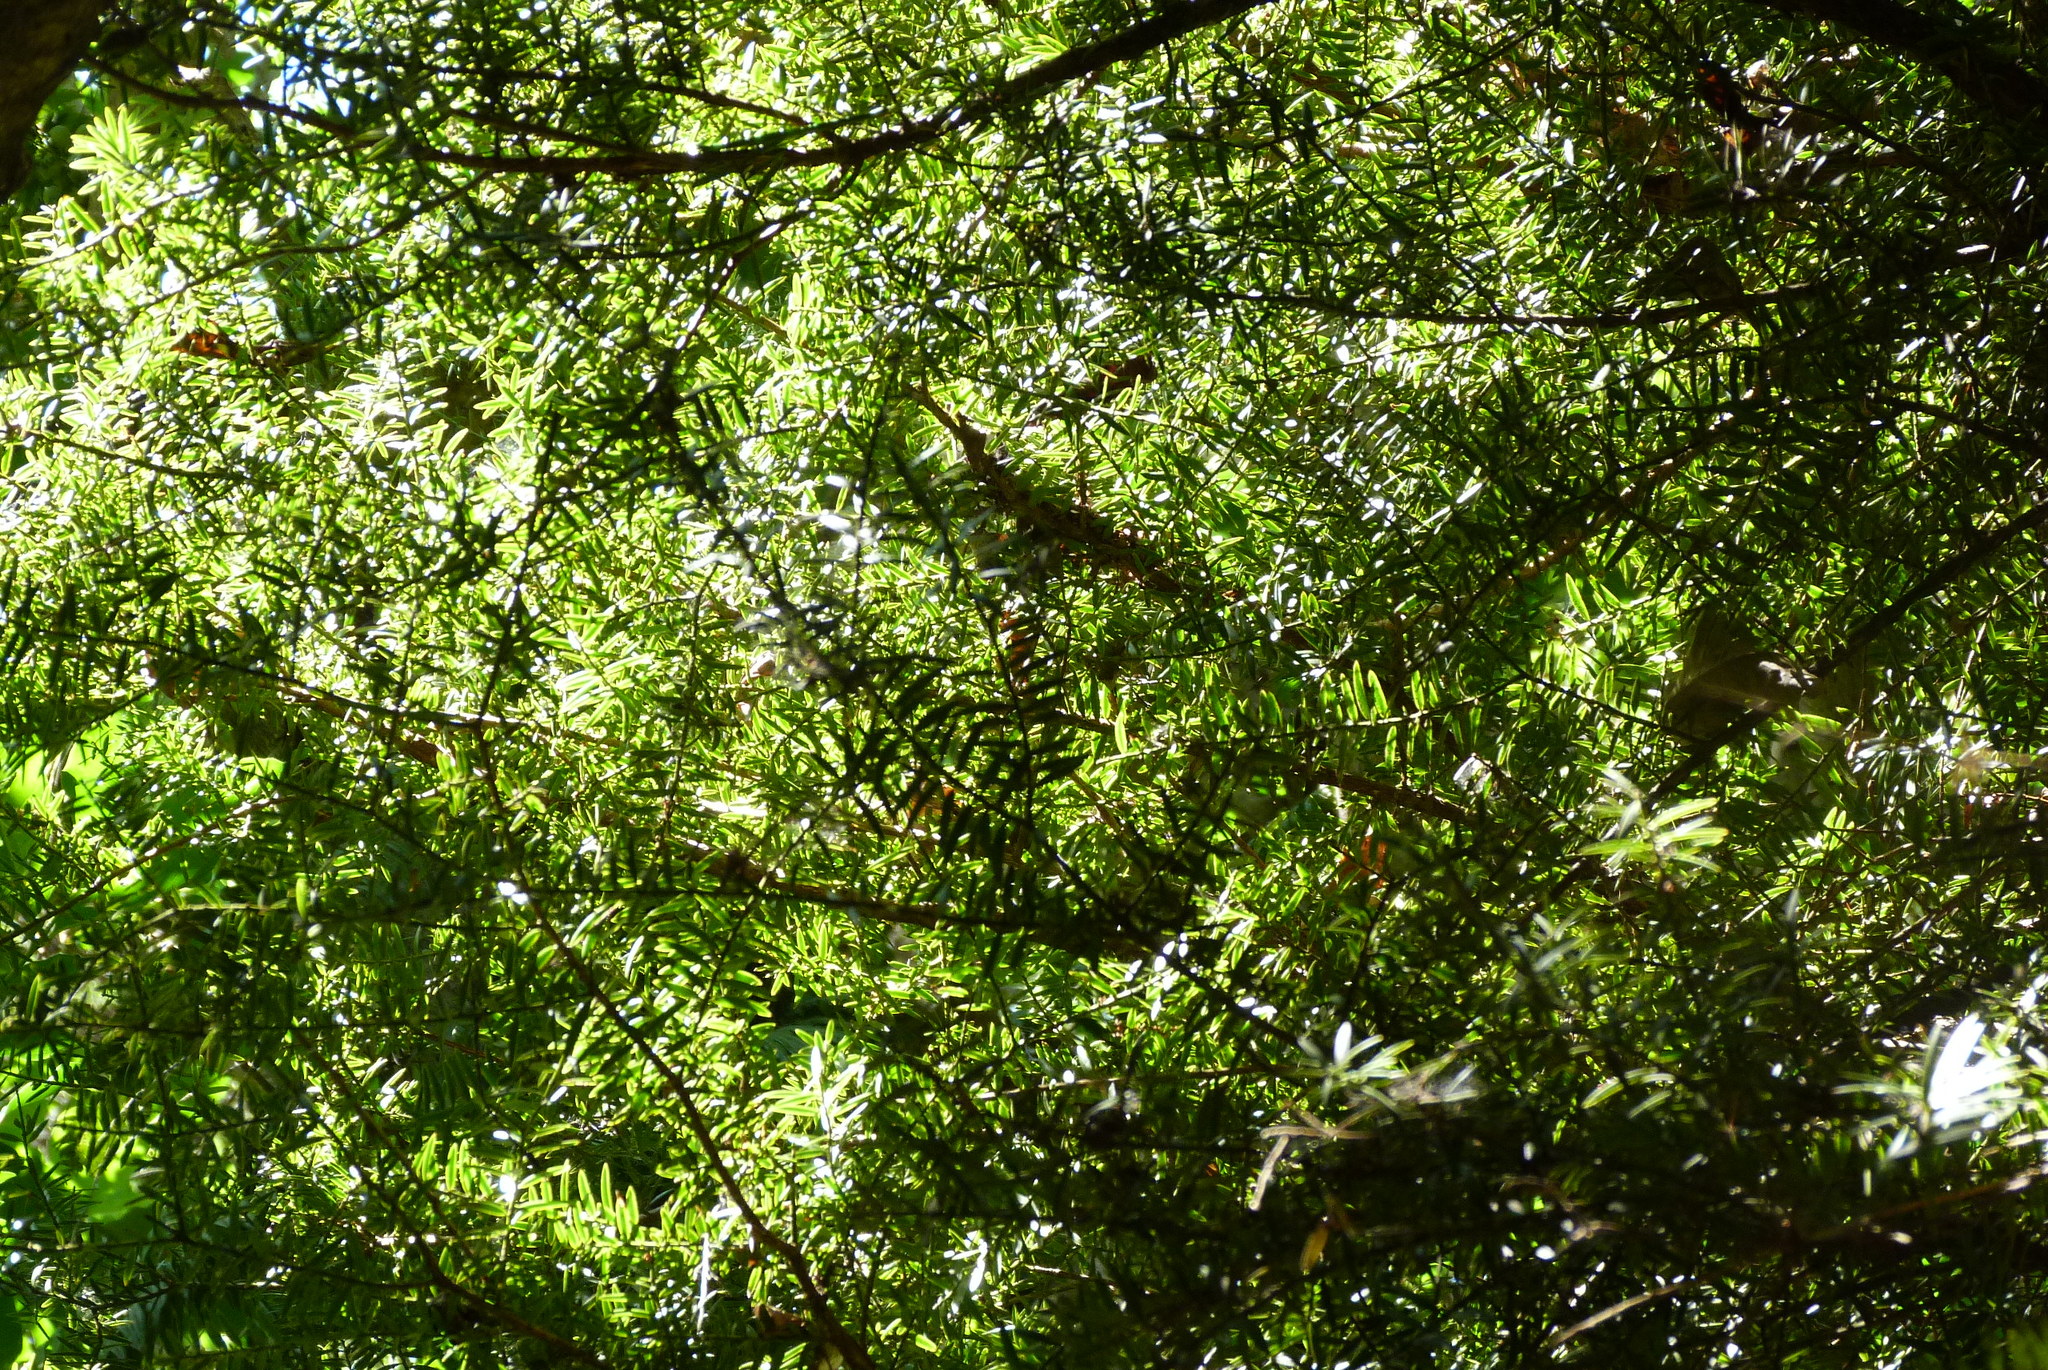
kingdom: Plantae
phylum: Tracheophyta
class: Pinopsida
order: Pinales
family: Podocarpaceae
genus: Podocarpus
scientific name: Podocarpus totara
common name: Totara
